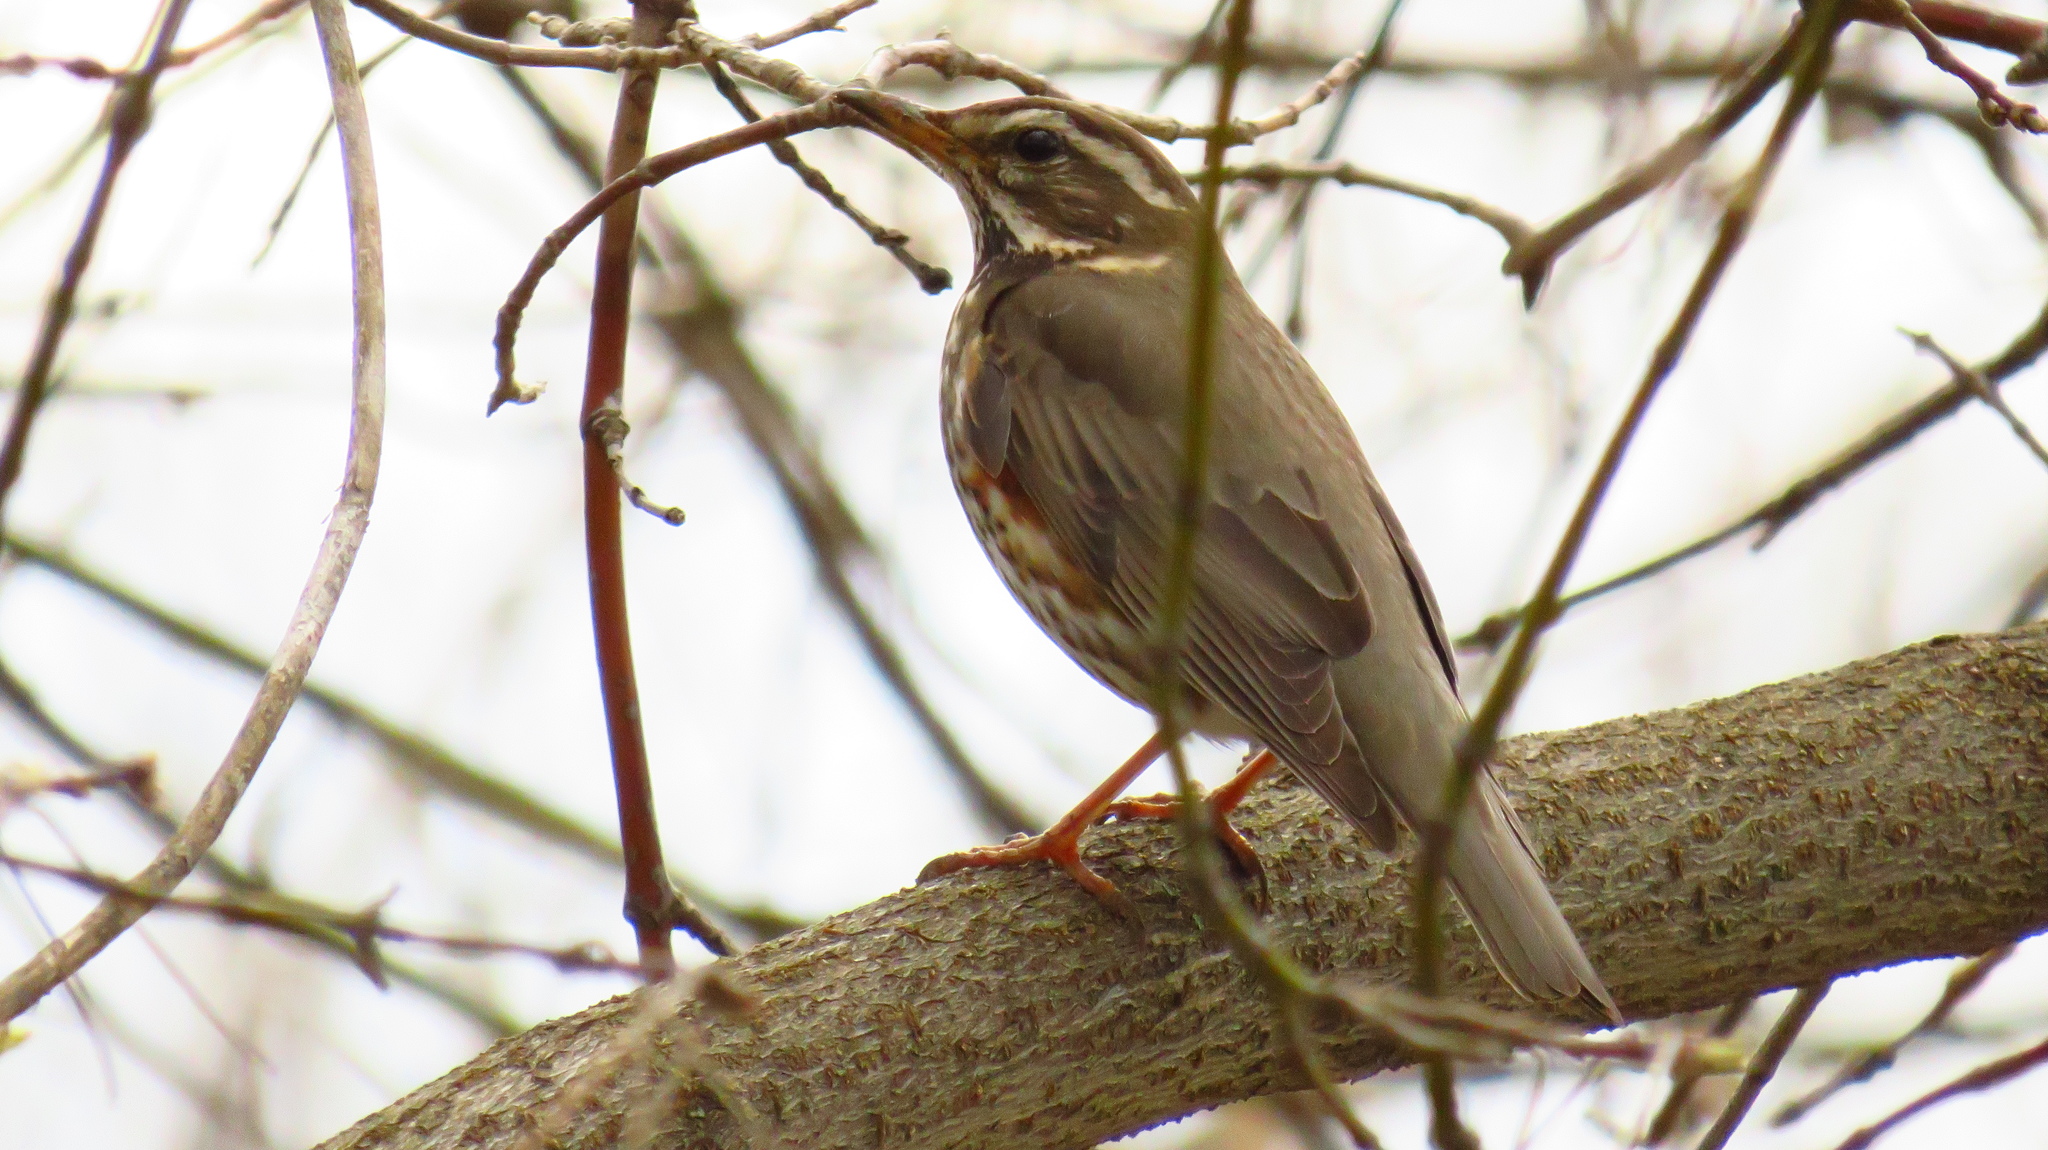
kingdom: Animalia
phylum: Chordata
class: Aves
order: Passeriformes
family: Turdidae
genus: Turdus
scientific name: Turdus iliacus
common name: Redwing
